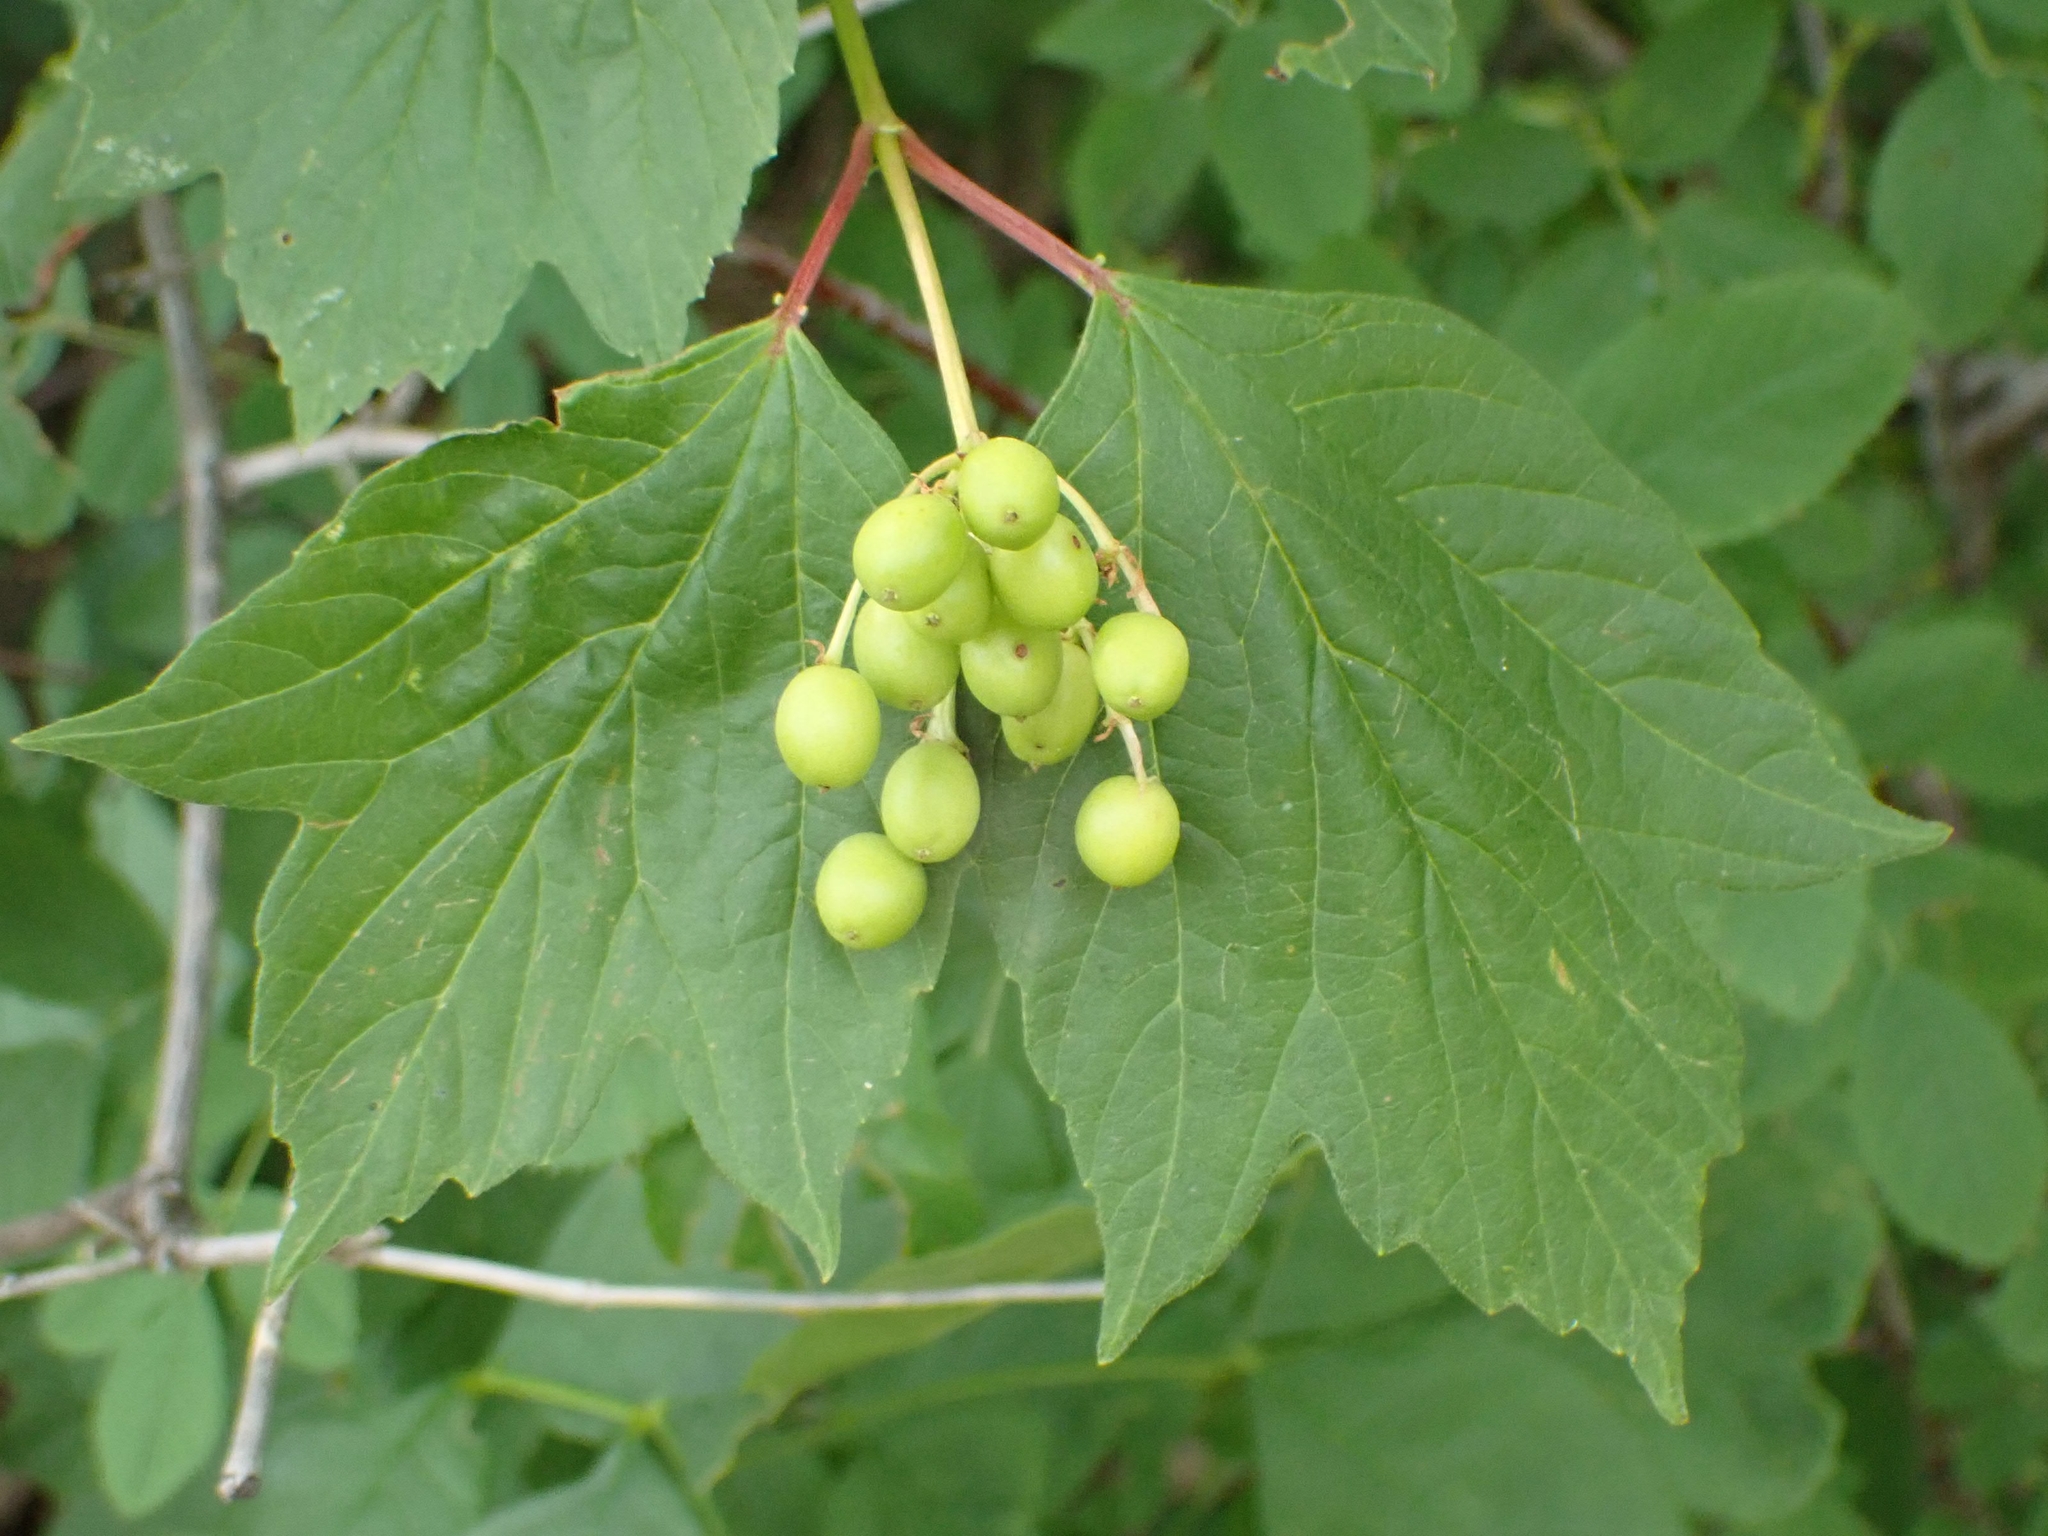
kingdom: Plantae
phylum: Tracheophyta
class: Magnoliopsida
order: Dipsacales
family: Viburnaceae
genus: Viburnum
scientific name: Viburnum trilobum
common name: American cranberrybush
